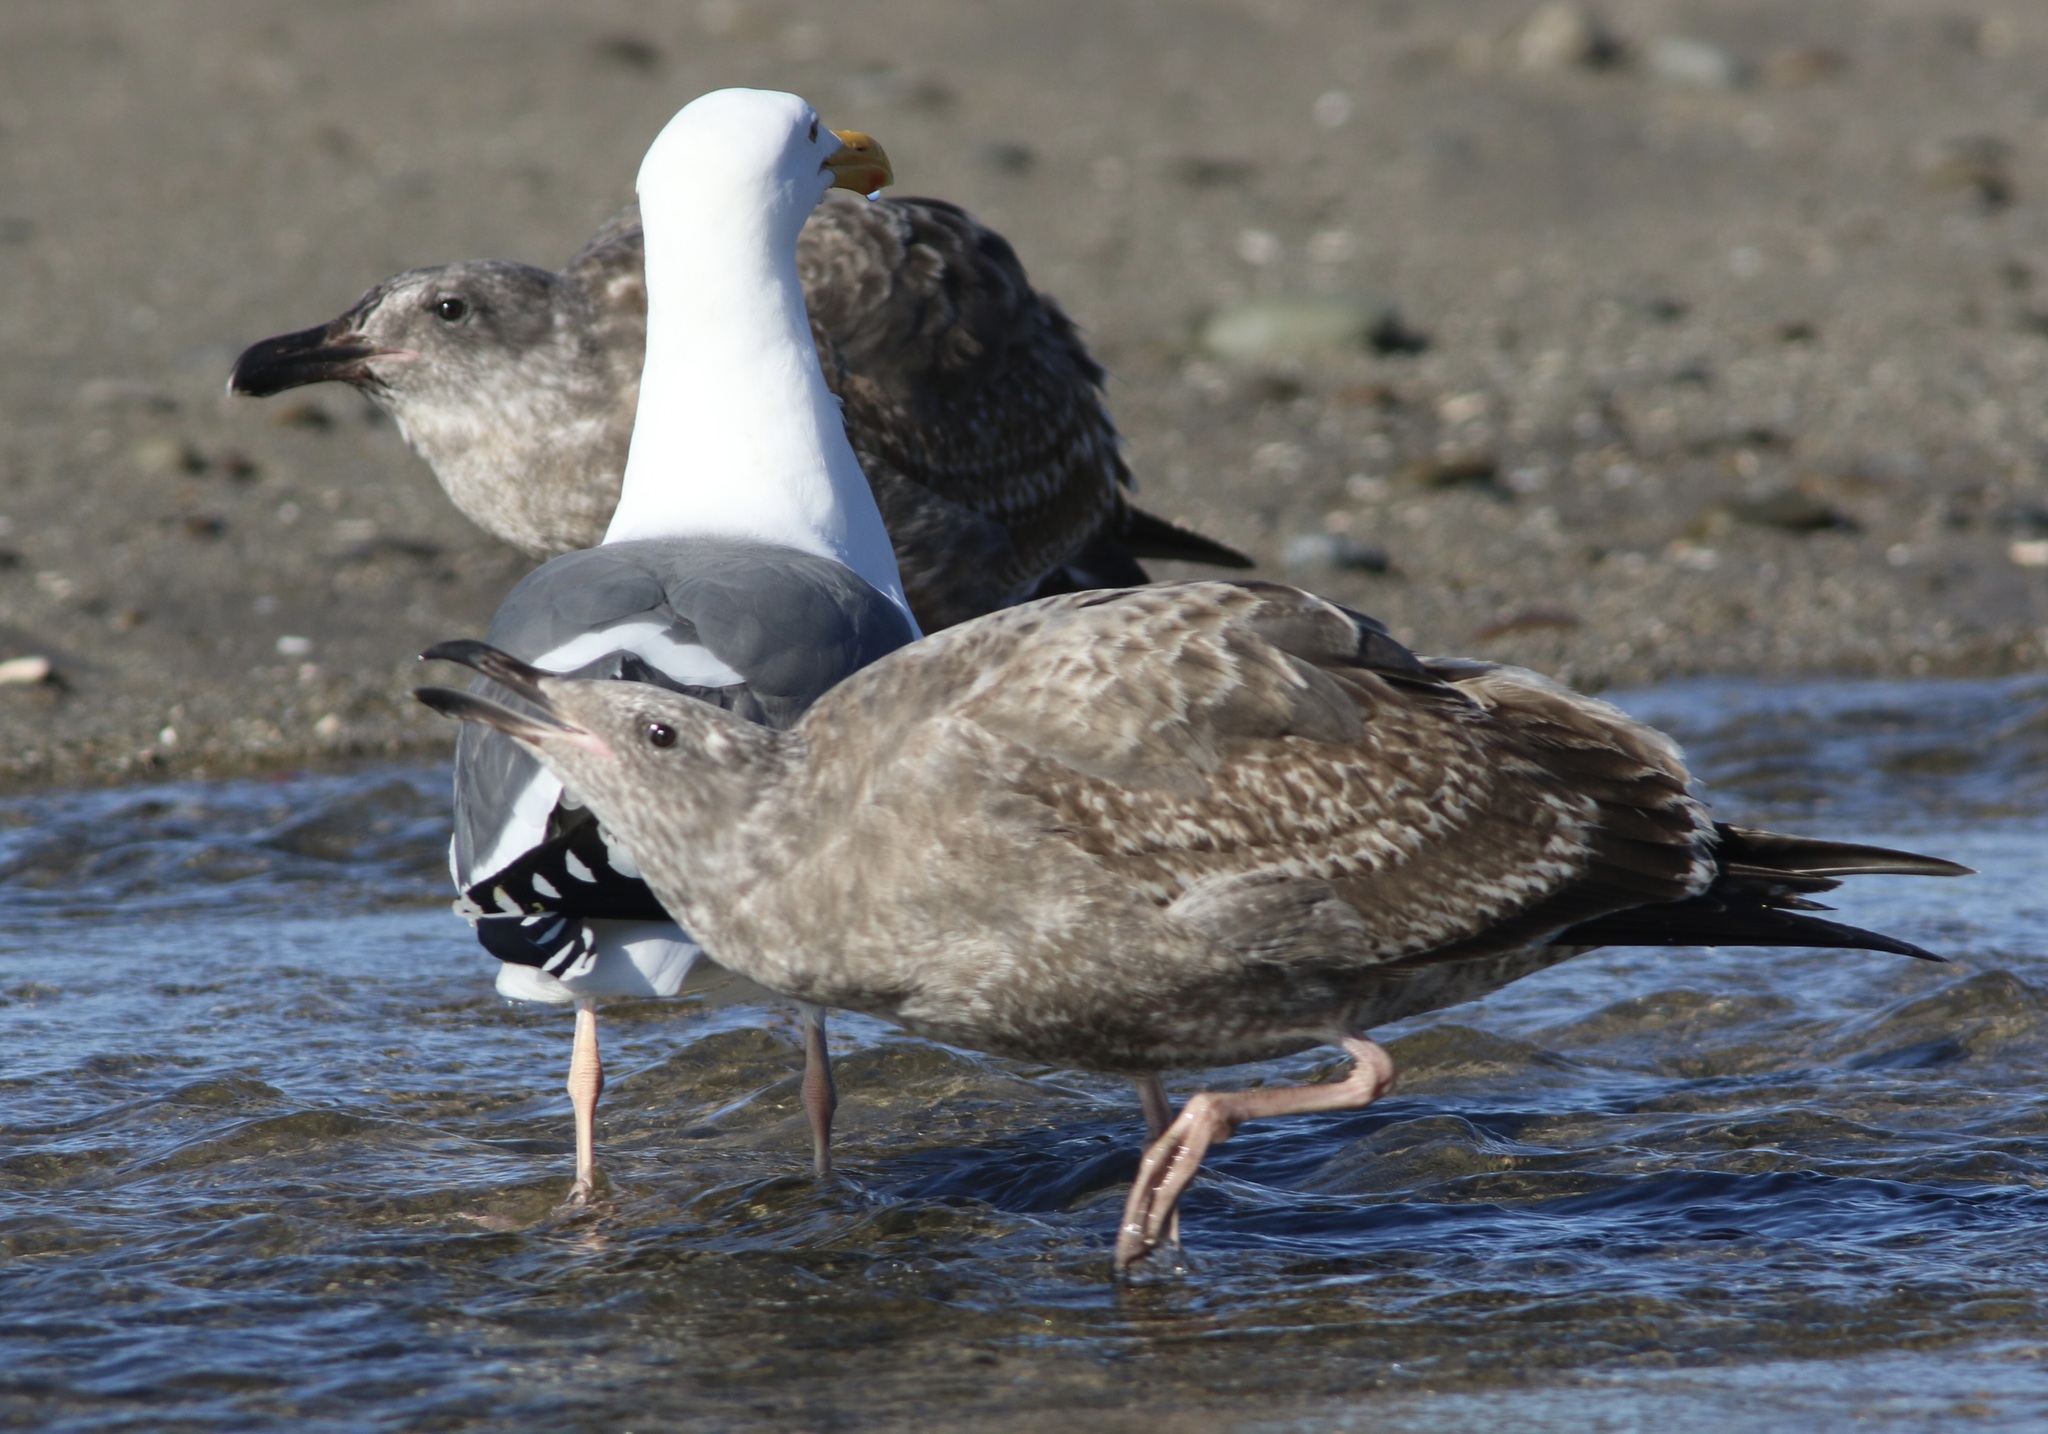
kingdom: Animalia
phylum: Chordata
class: Aves
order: Charadriiformes
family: Laridae
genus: Larus
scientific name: Larus occidentalis
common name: Western gull
